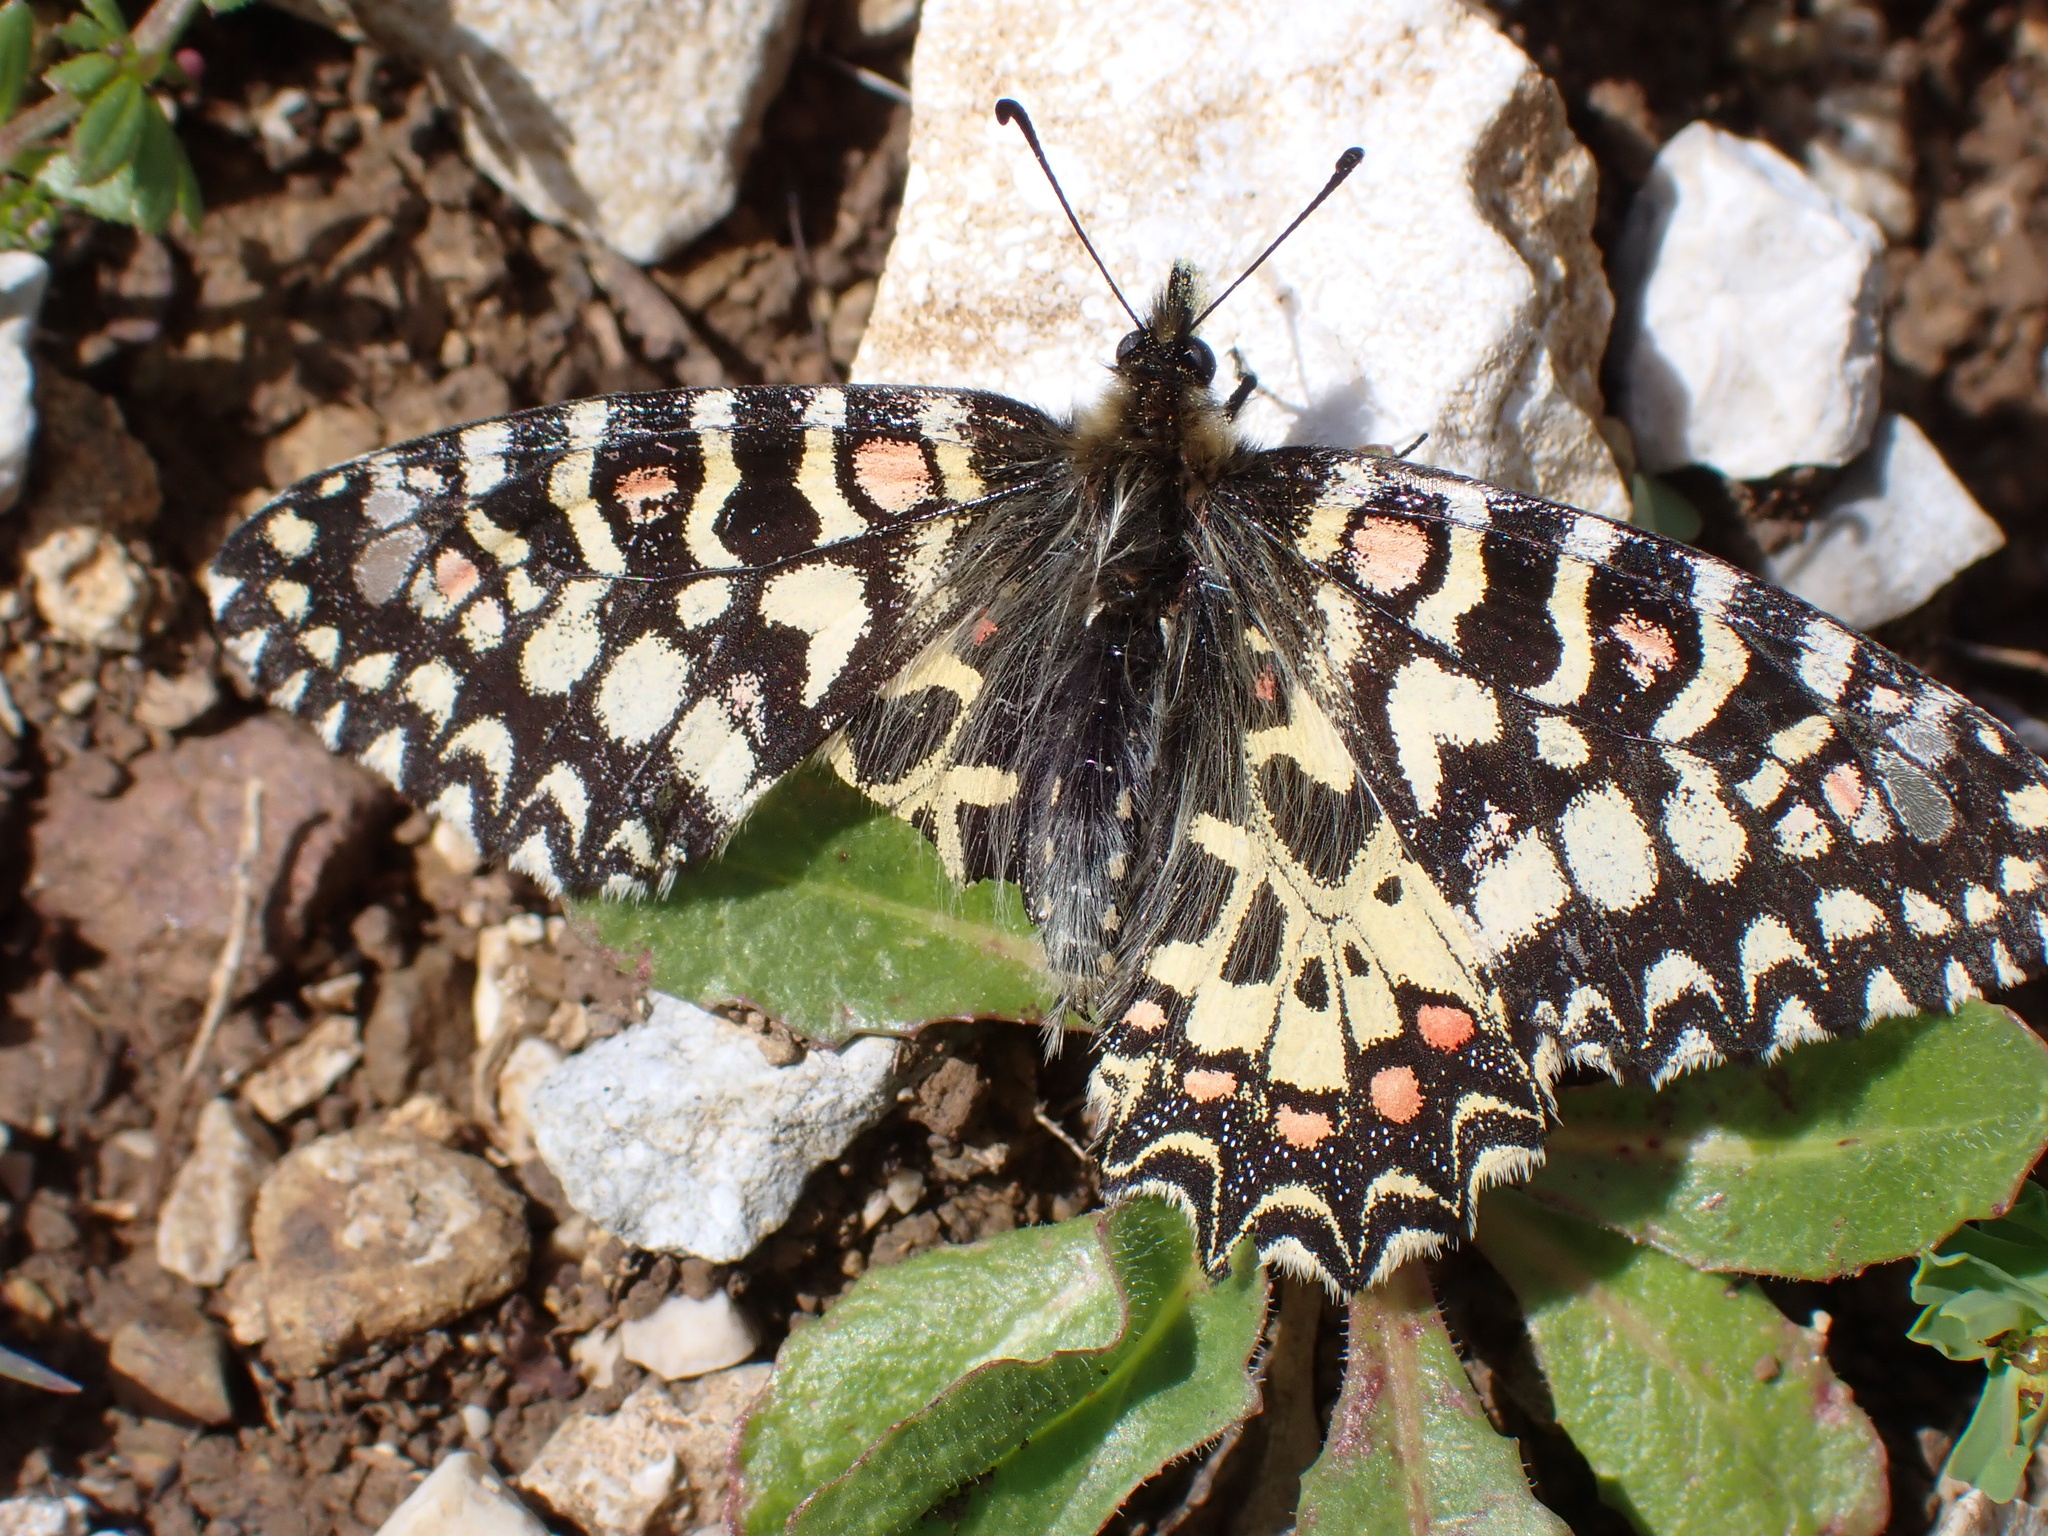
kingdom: Animalia
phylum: Arthropoda
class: Insecta
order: Lepidoptera
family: Papilionidae
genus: Zerynthia
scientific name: Zerynthia rumina
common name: Spanish festoon
